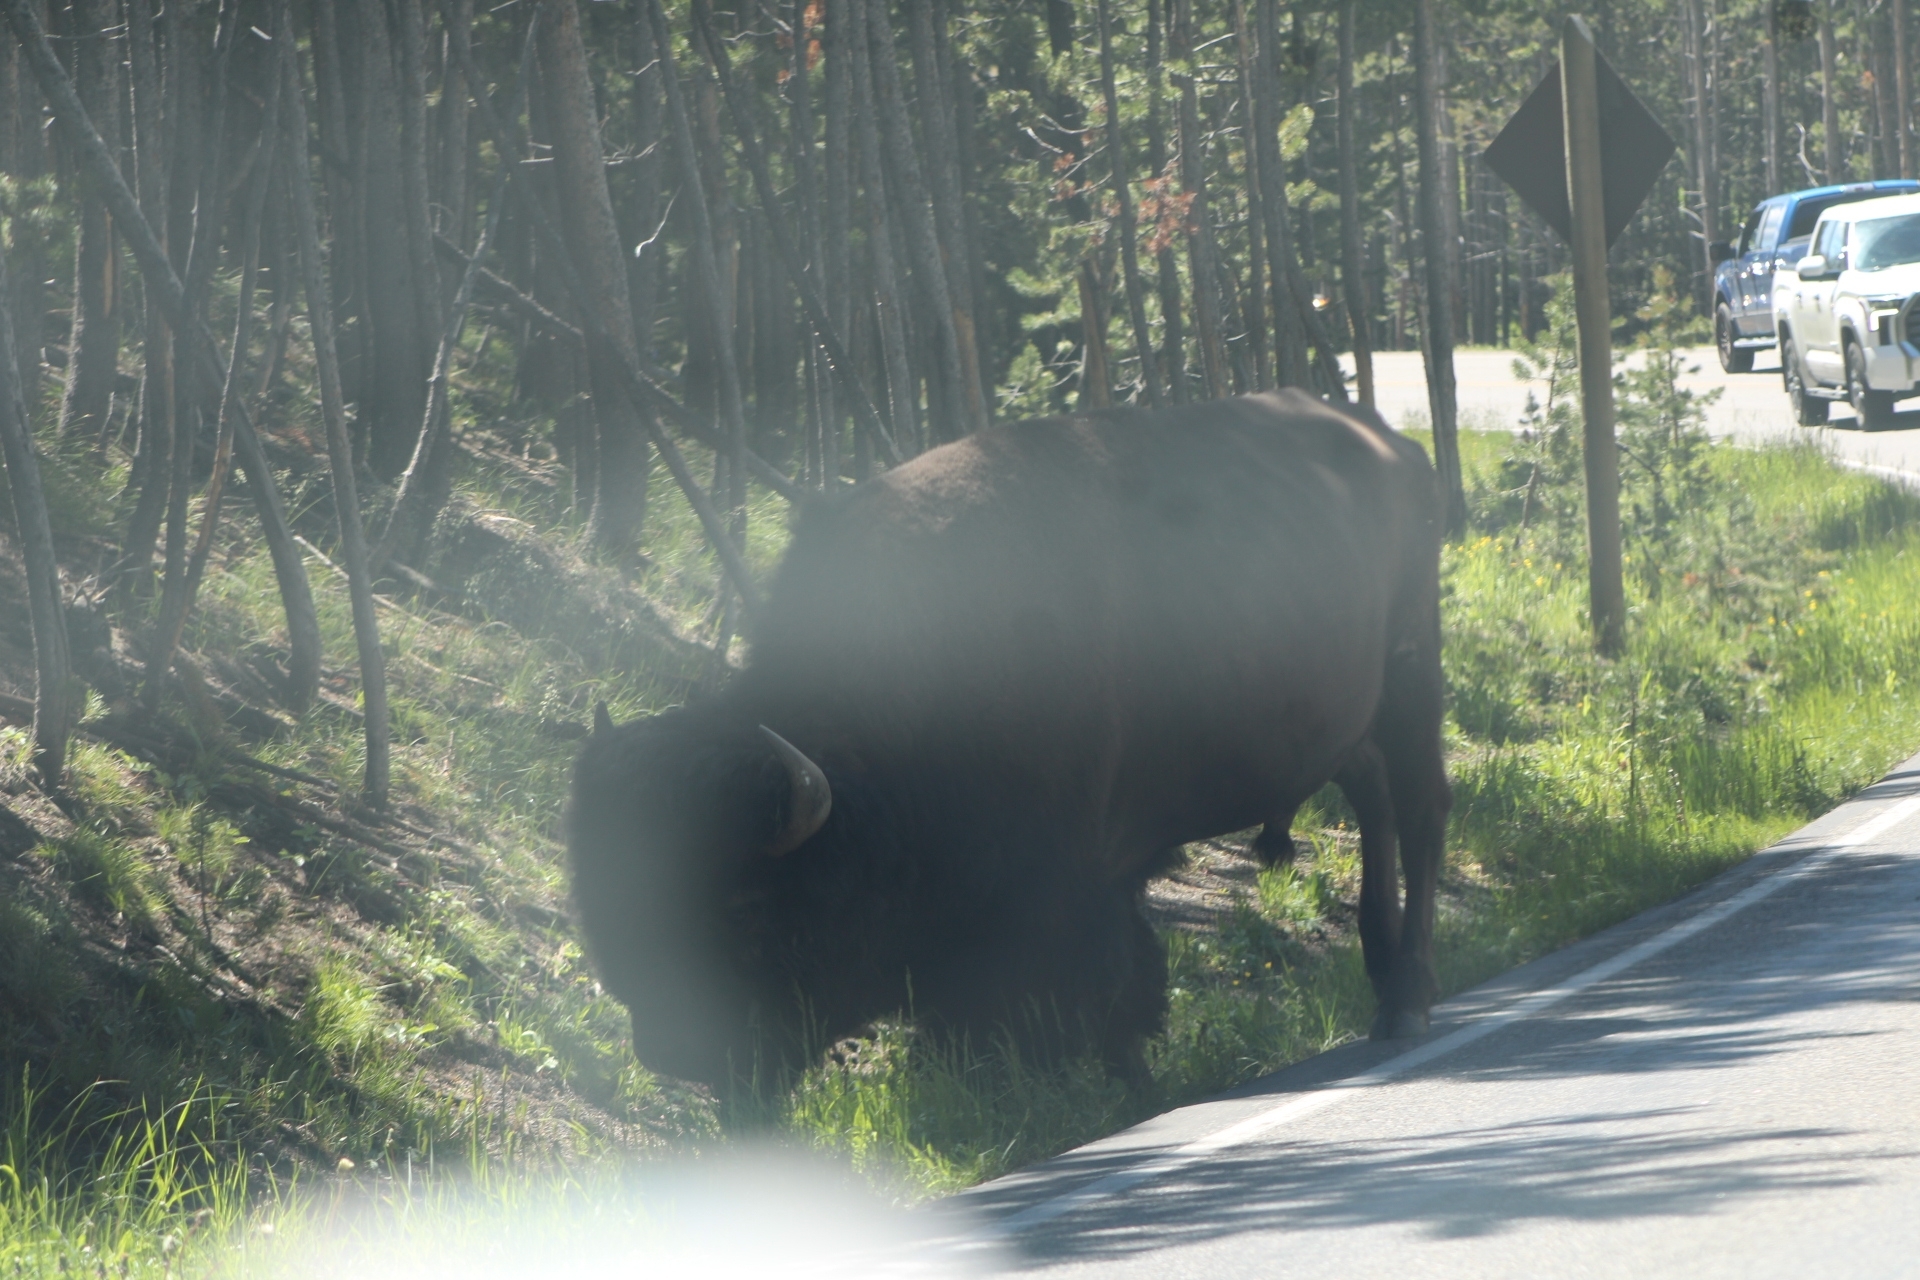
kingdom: Animalia
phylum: Chordata
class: Mammalia
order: Artiodactyla
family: Bovidae
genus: Bison
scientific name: Bison bison
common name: American bison
